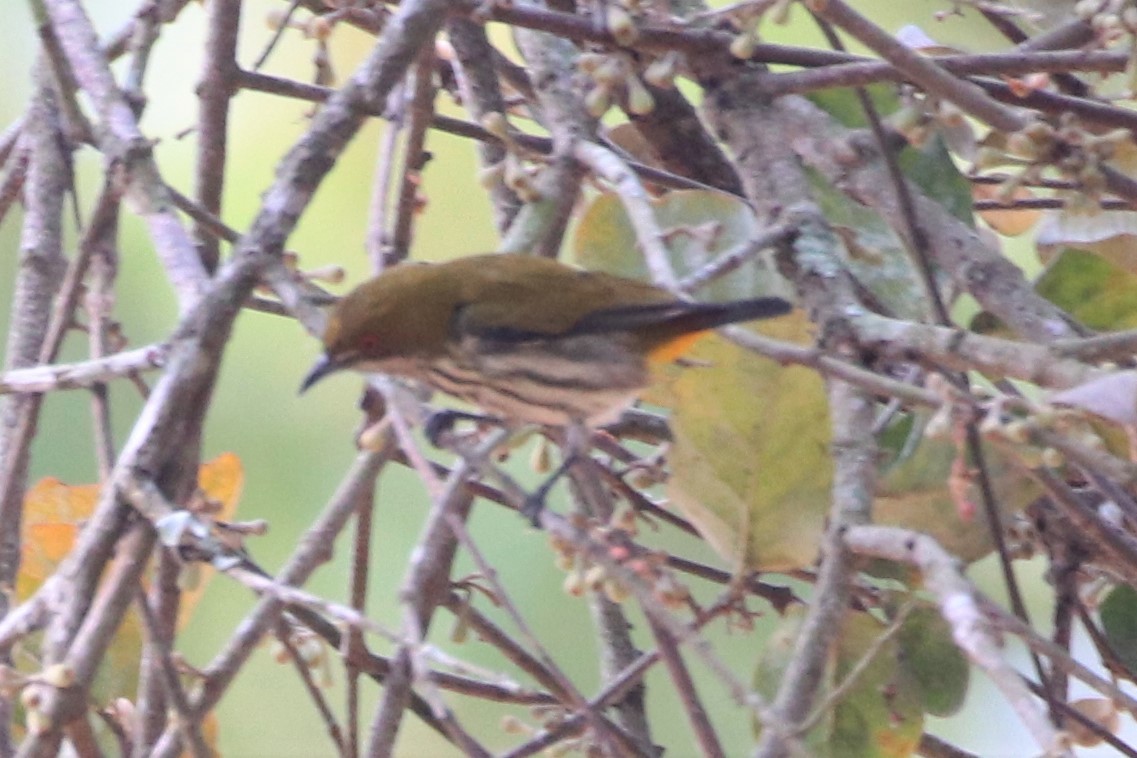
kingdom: Animalia
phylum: Chordata
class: Aves
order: Passeriformes
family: Dicaeidae
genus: Dicaeum
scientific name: Dicaeum chrysorrheum
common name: Yellow-vented flowerpecker
